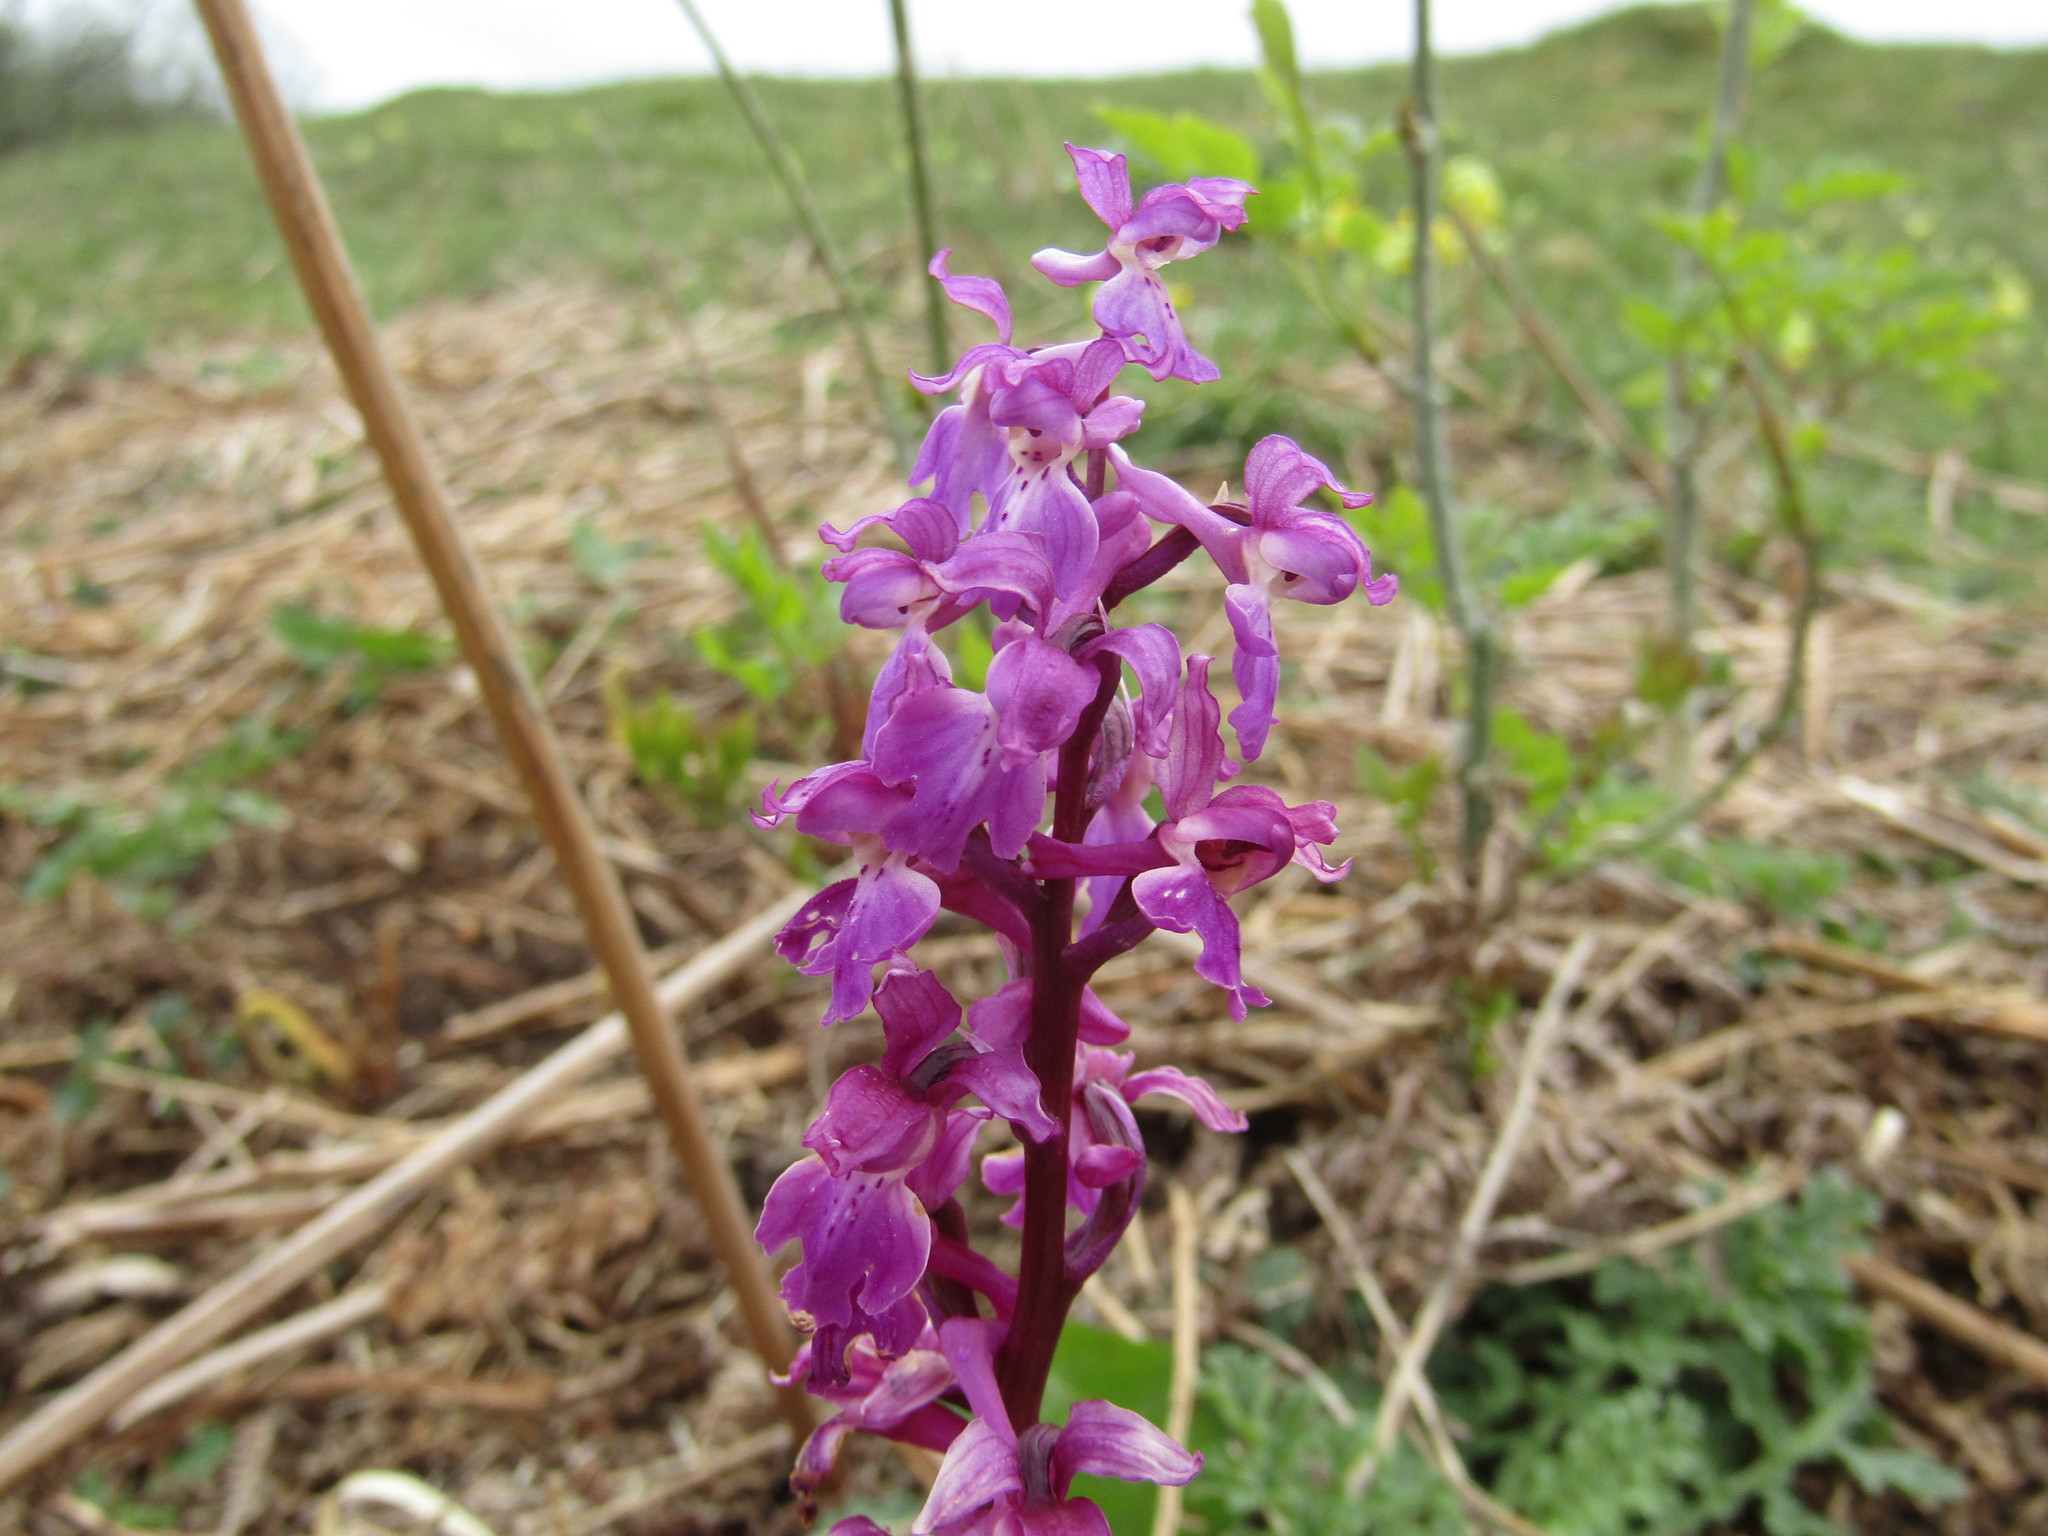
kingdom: Plantae
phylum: Tracheophyta
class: Liliopsida
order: Asparagales
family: Orchidaceae
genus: Orchis
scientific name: Orchis mascula
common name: Early-purple orchid
